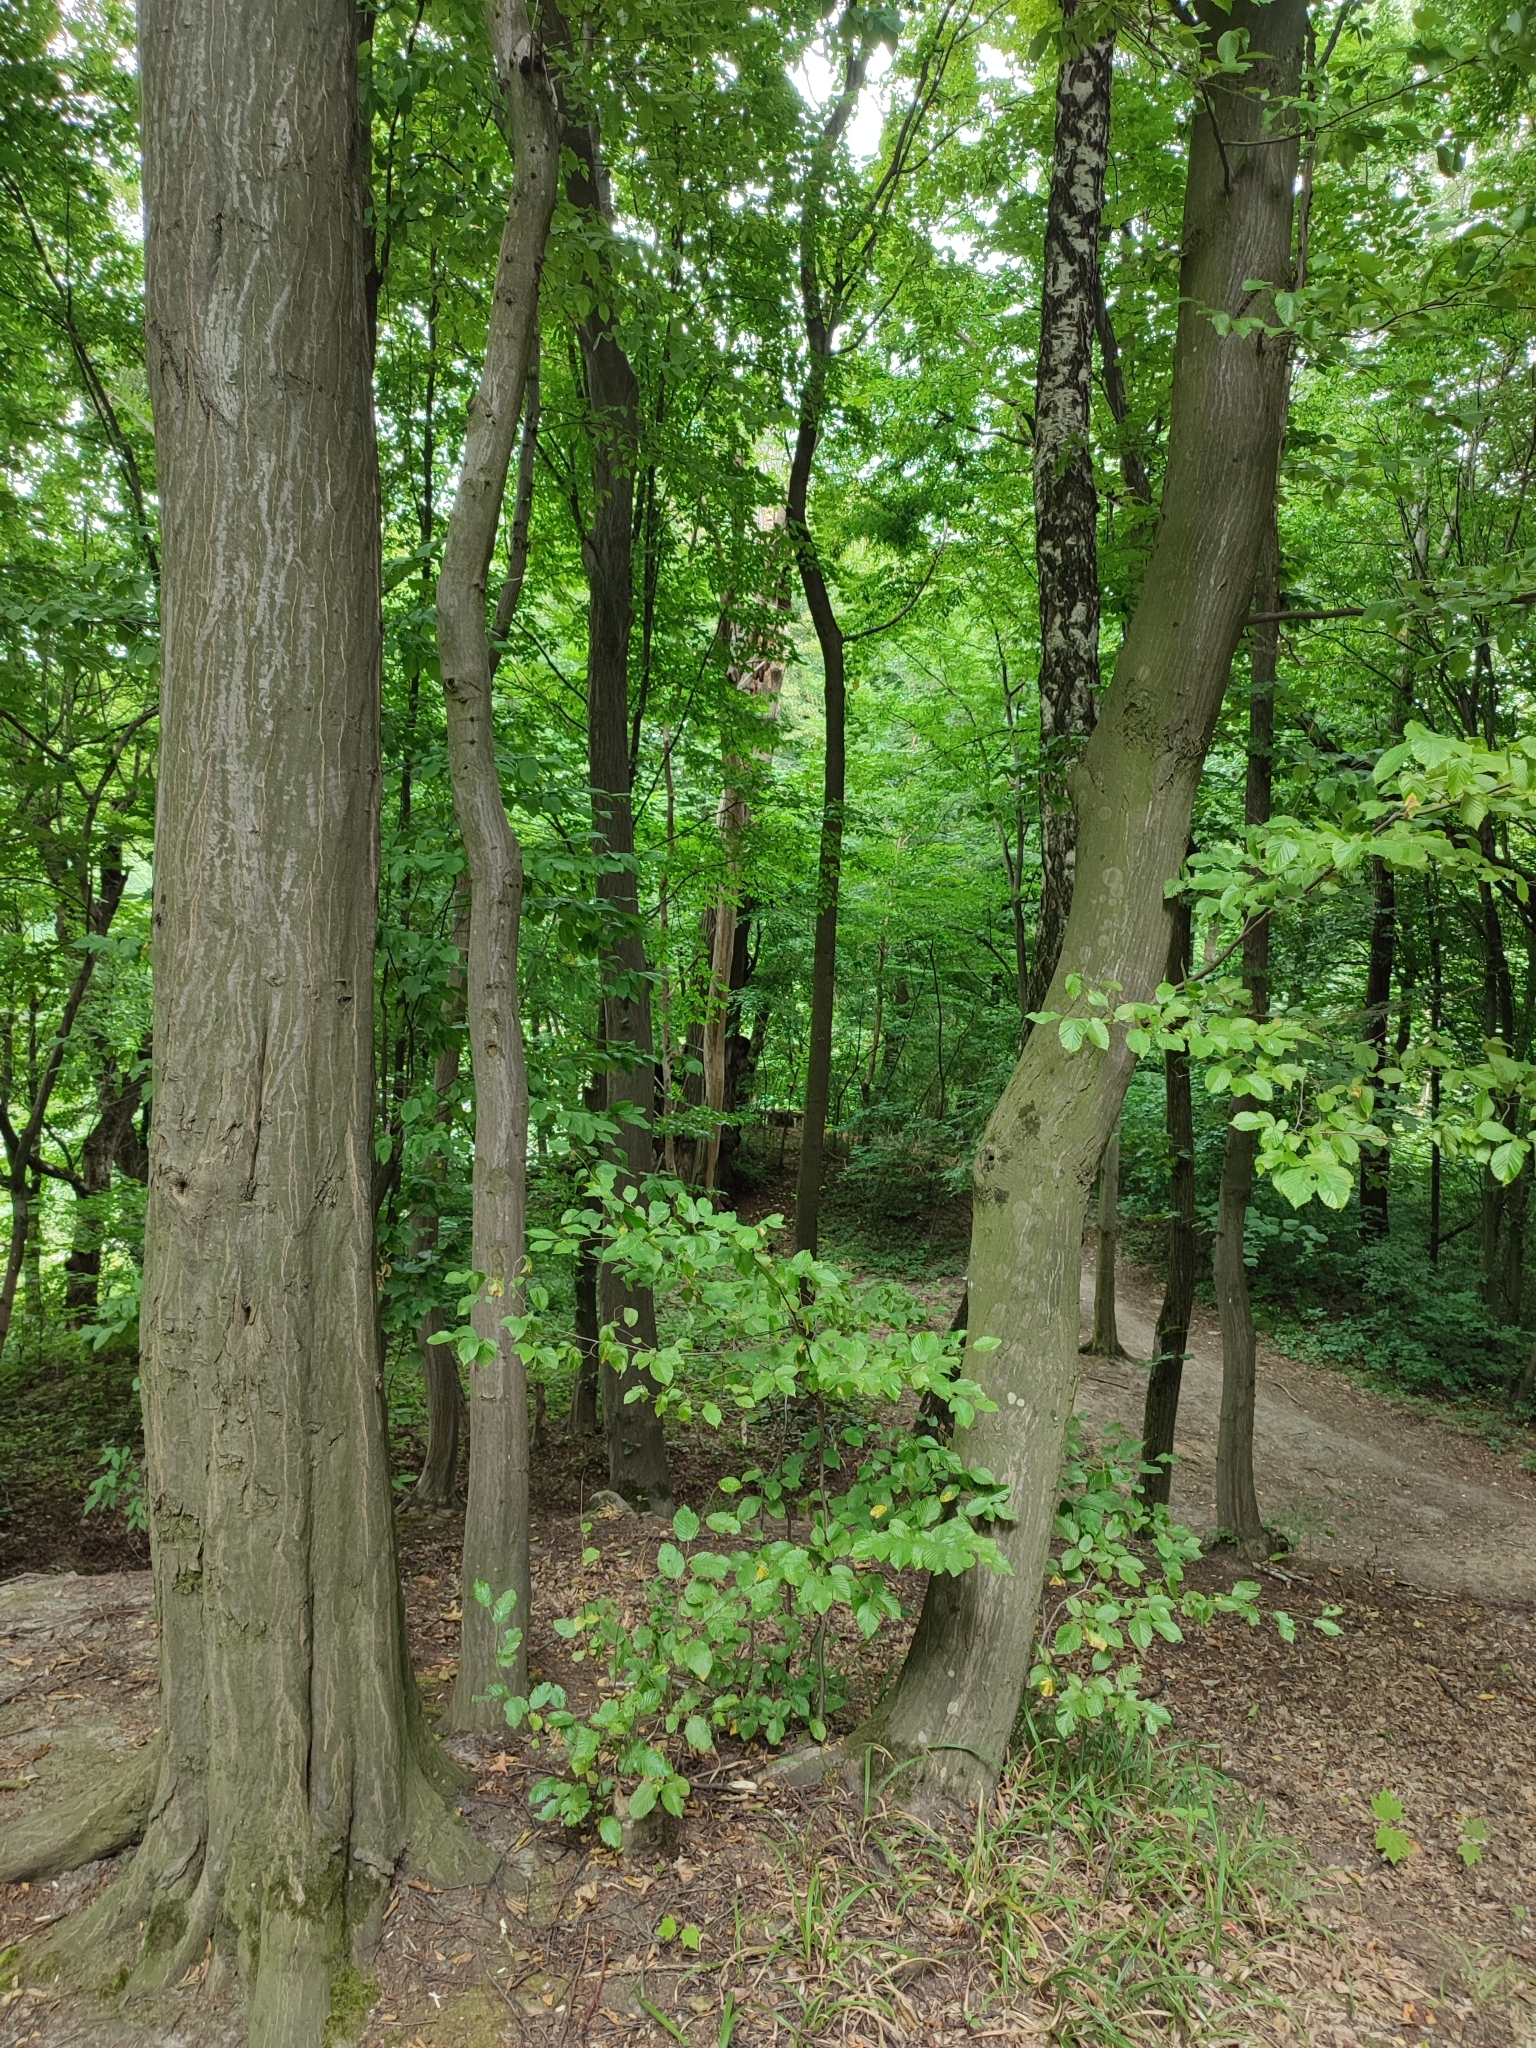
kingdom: Plantae
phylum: Tracheophyta
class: Magnoliopsida
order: Fagales
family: Betulaceae
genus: Carpinus
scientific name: Carpinus betulus
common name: Hornbeam
